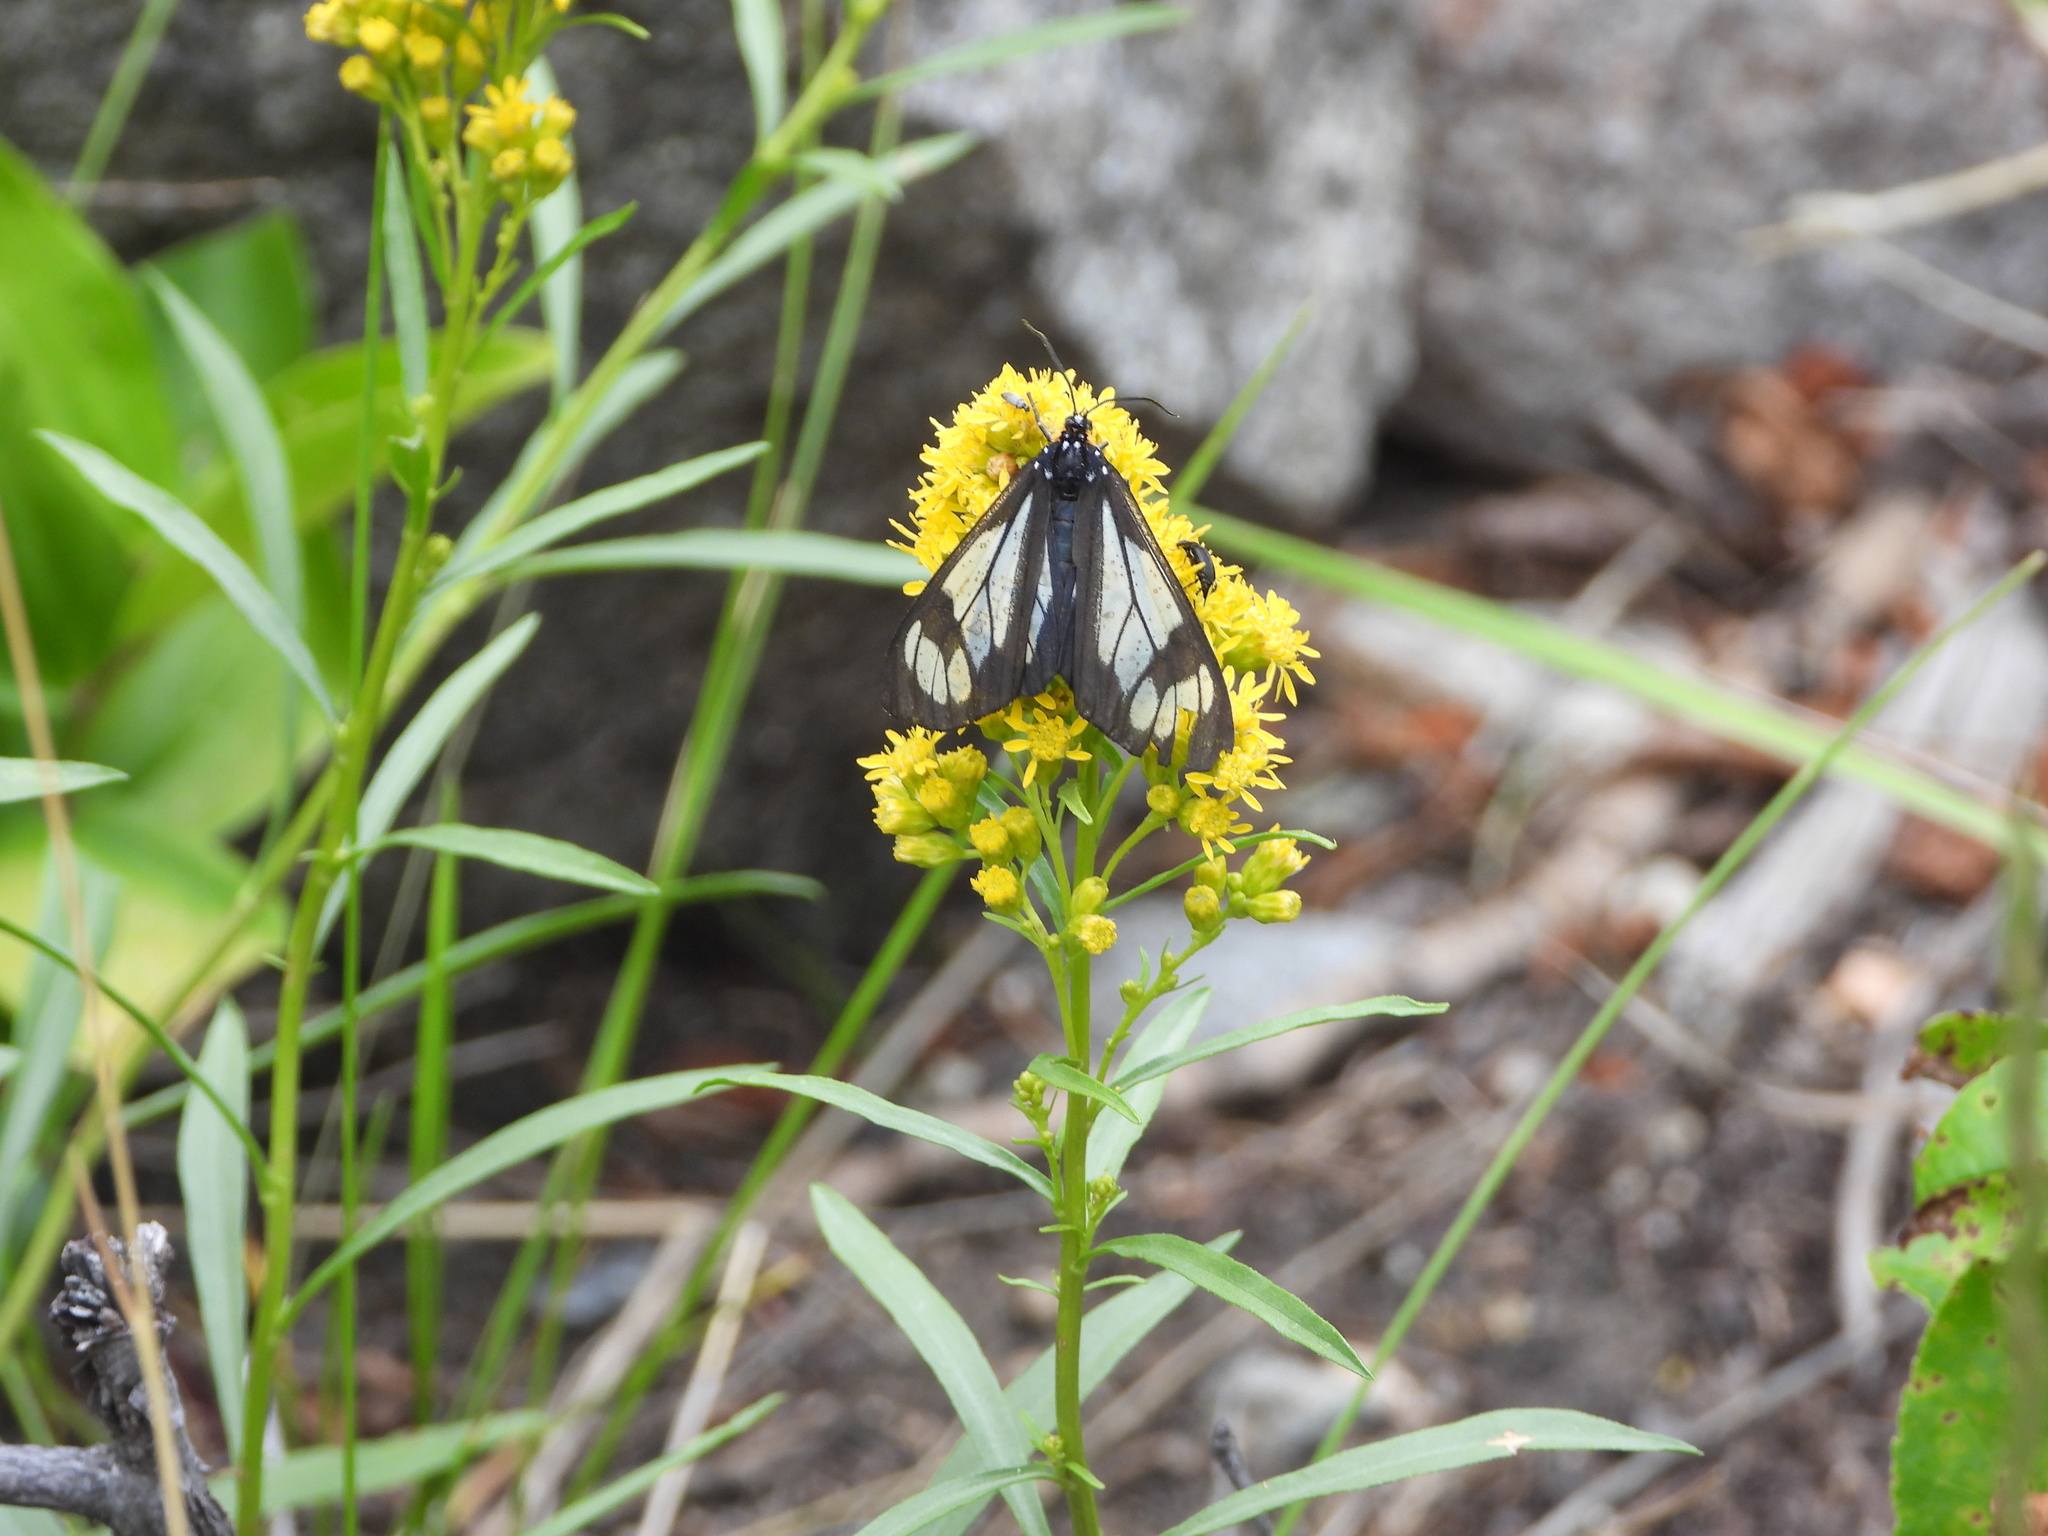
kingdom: Animalia
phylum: Arthropoda
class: Insecta
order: Lepidoptera
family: Erebidae
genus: Gnophaela
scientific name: Gnophaela vermiculata
